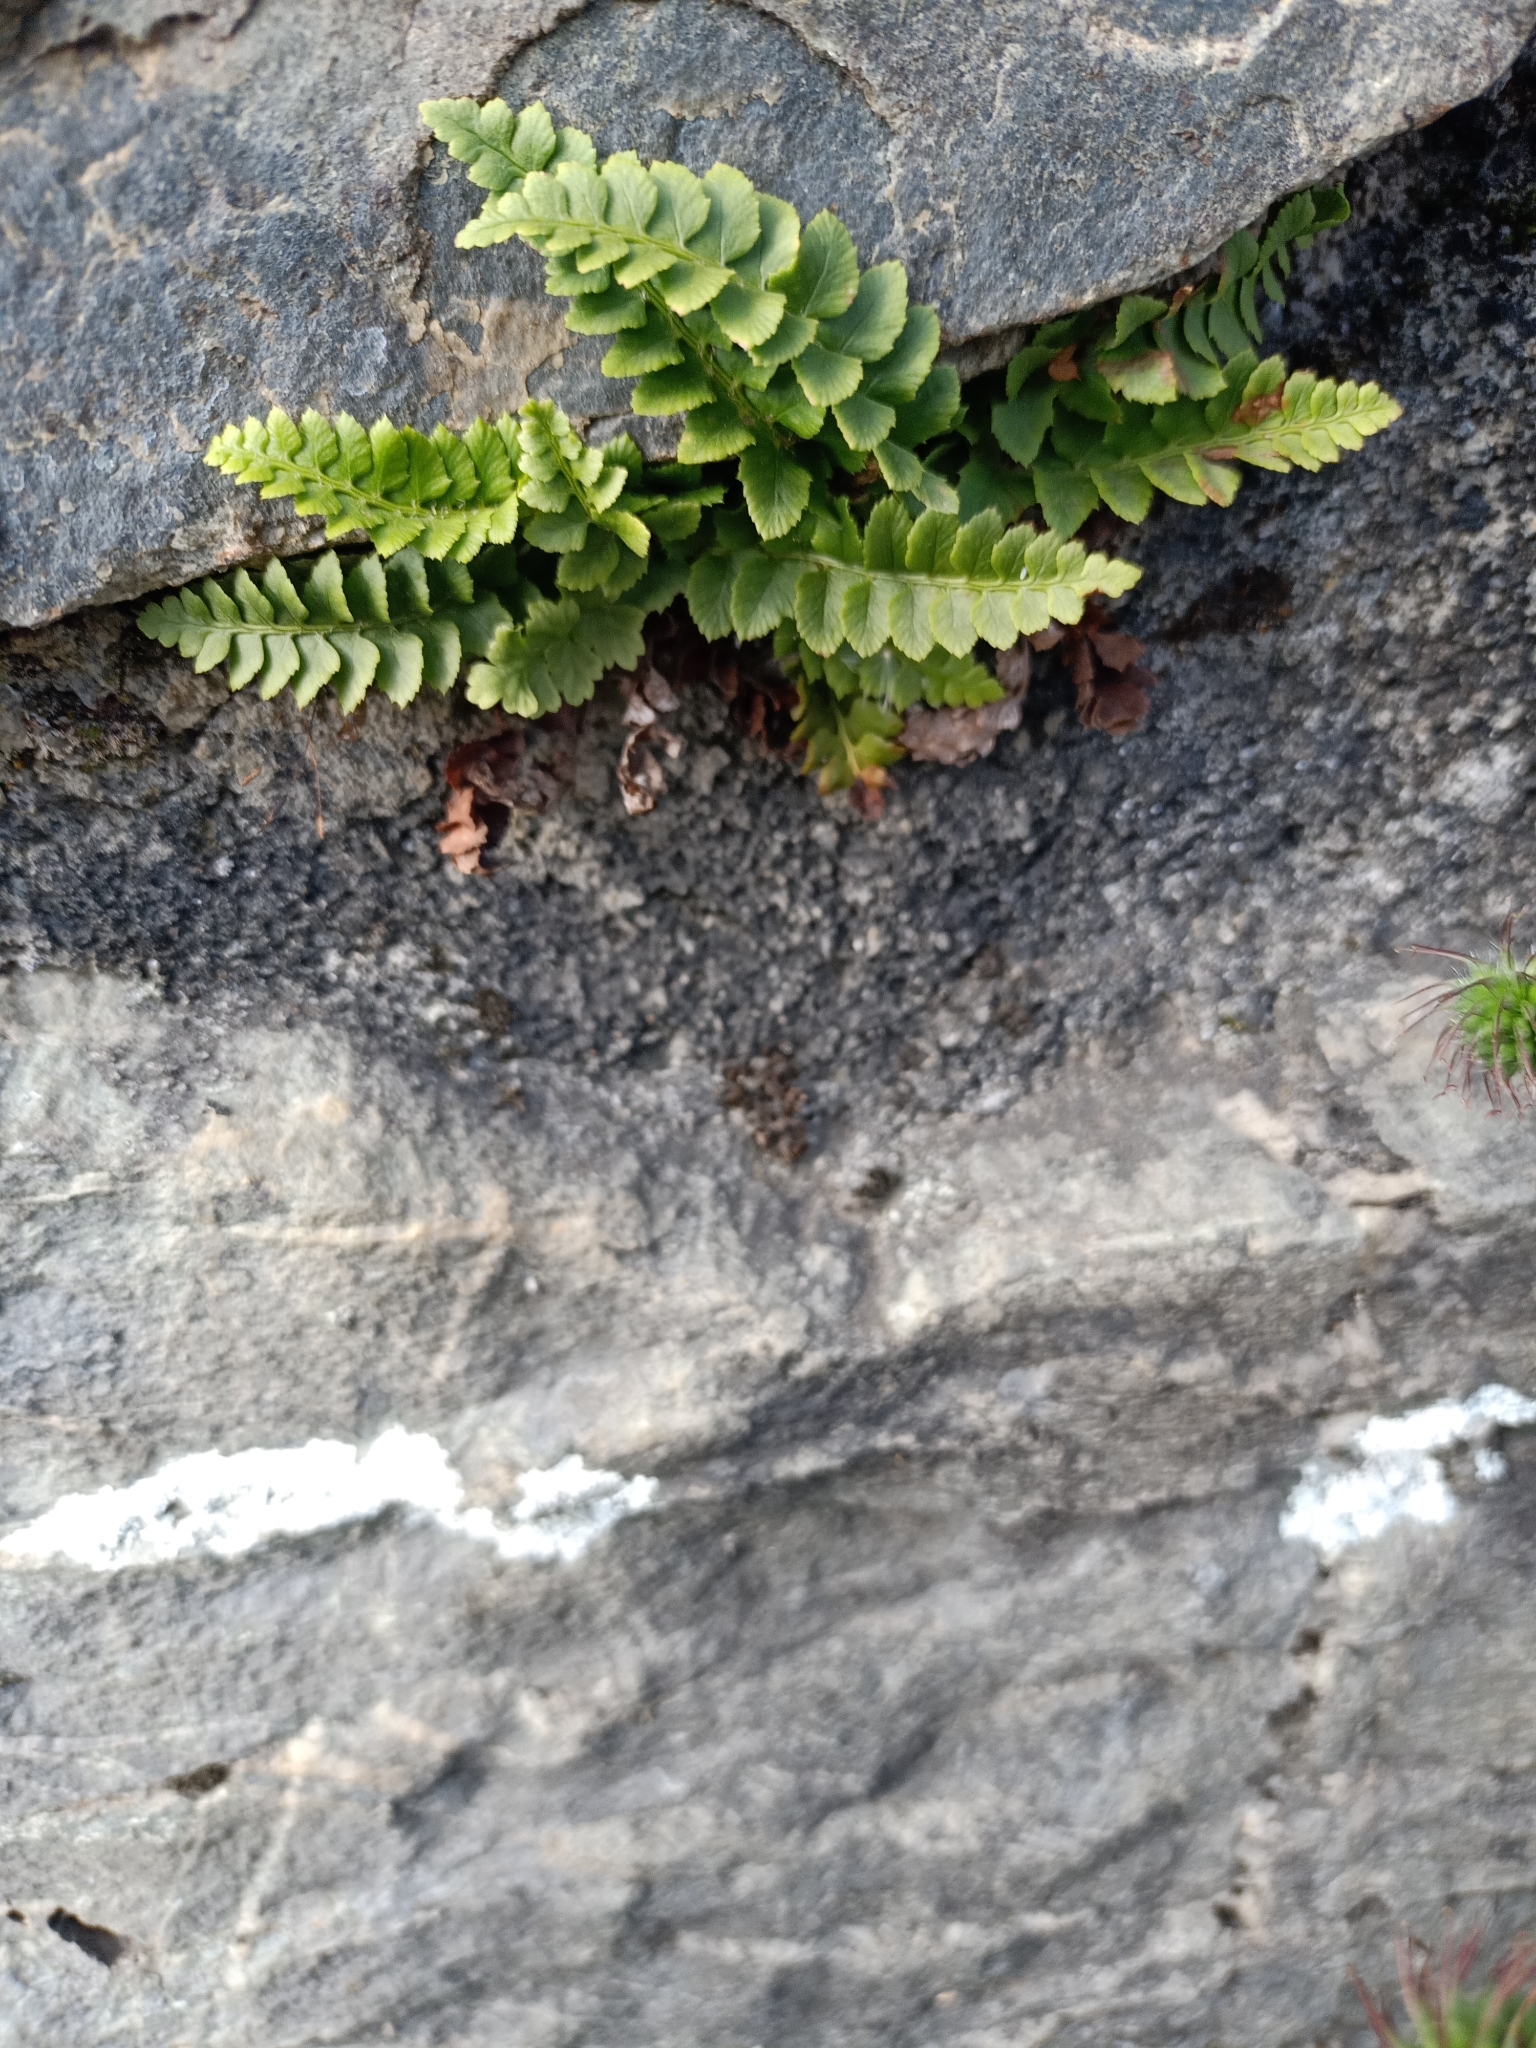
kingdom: Plantae
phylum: Tracheophyta
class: Polypodiopsida
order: Polypodiales
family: Dryopteridaceae
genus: Polystichum
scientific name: Polystichum lonchitis
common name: Holly fern
